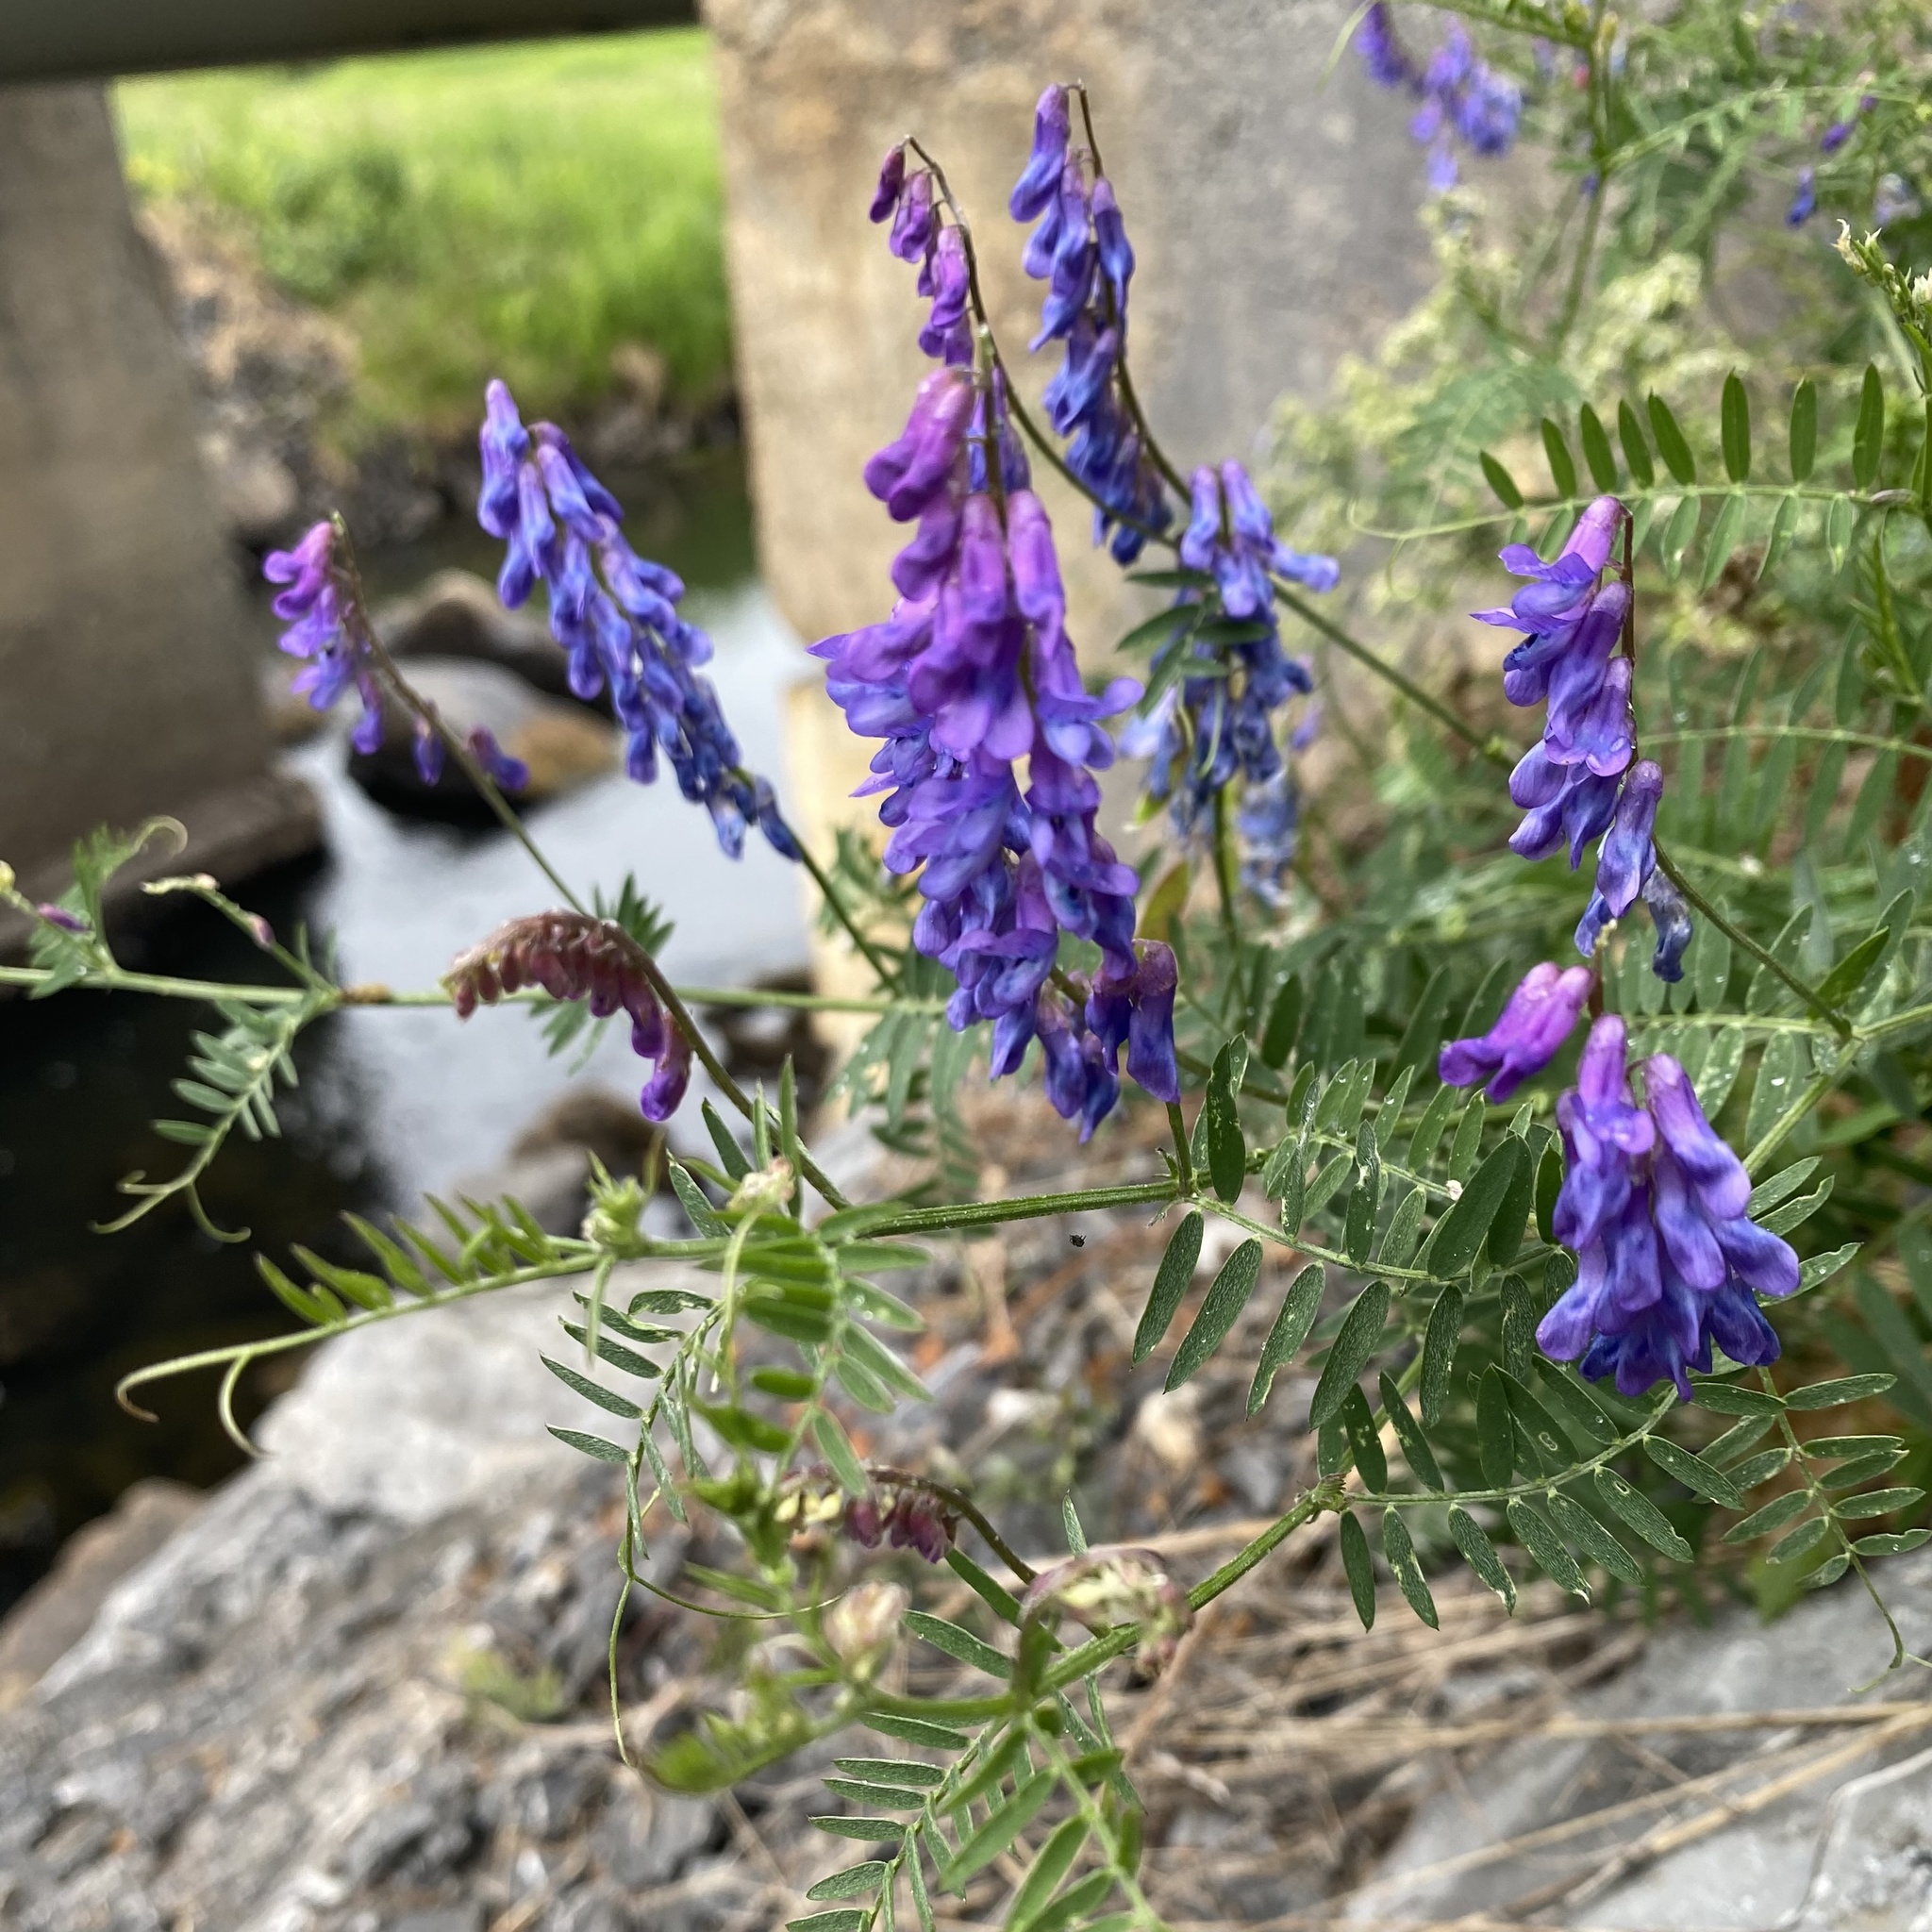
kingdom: Plantae
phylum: Tracheophyta
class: Magnoliopsida
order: Fabales
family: Fabaceae
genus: Vicia
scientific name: Vicia cracca
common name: Bird vetch
